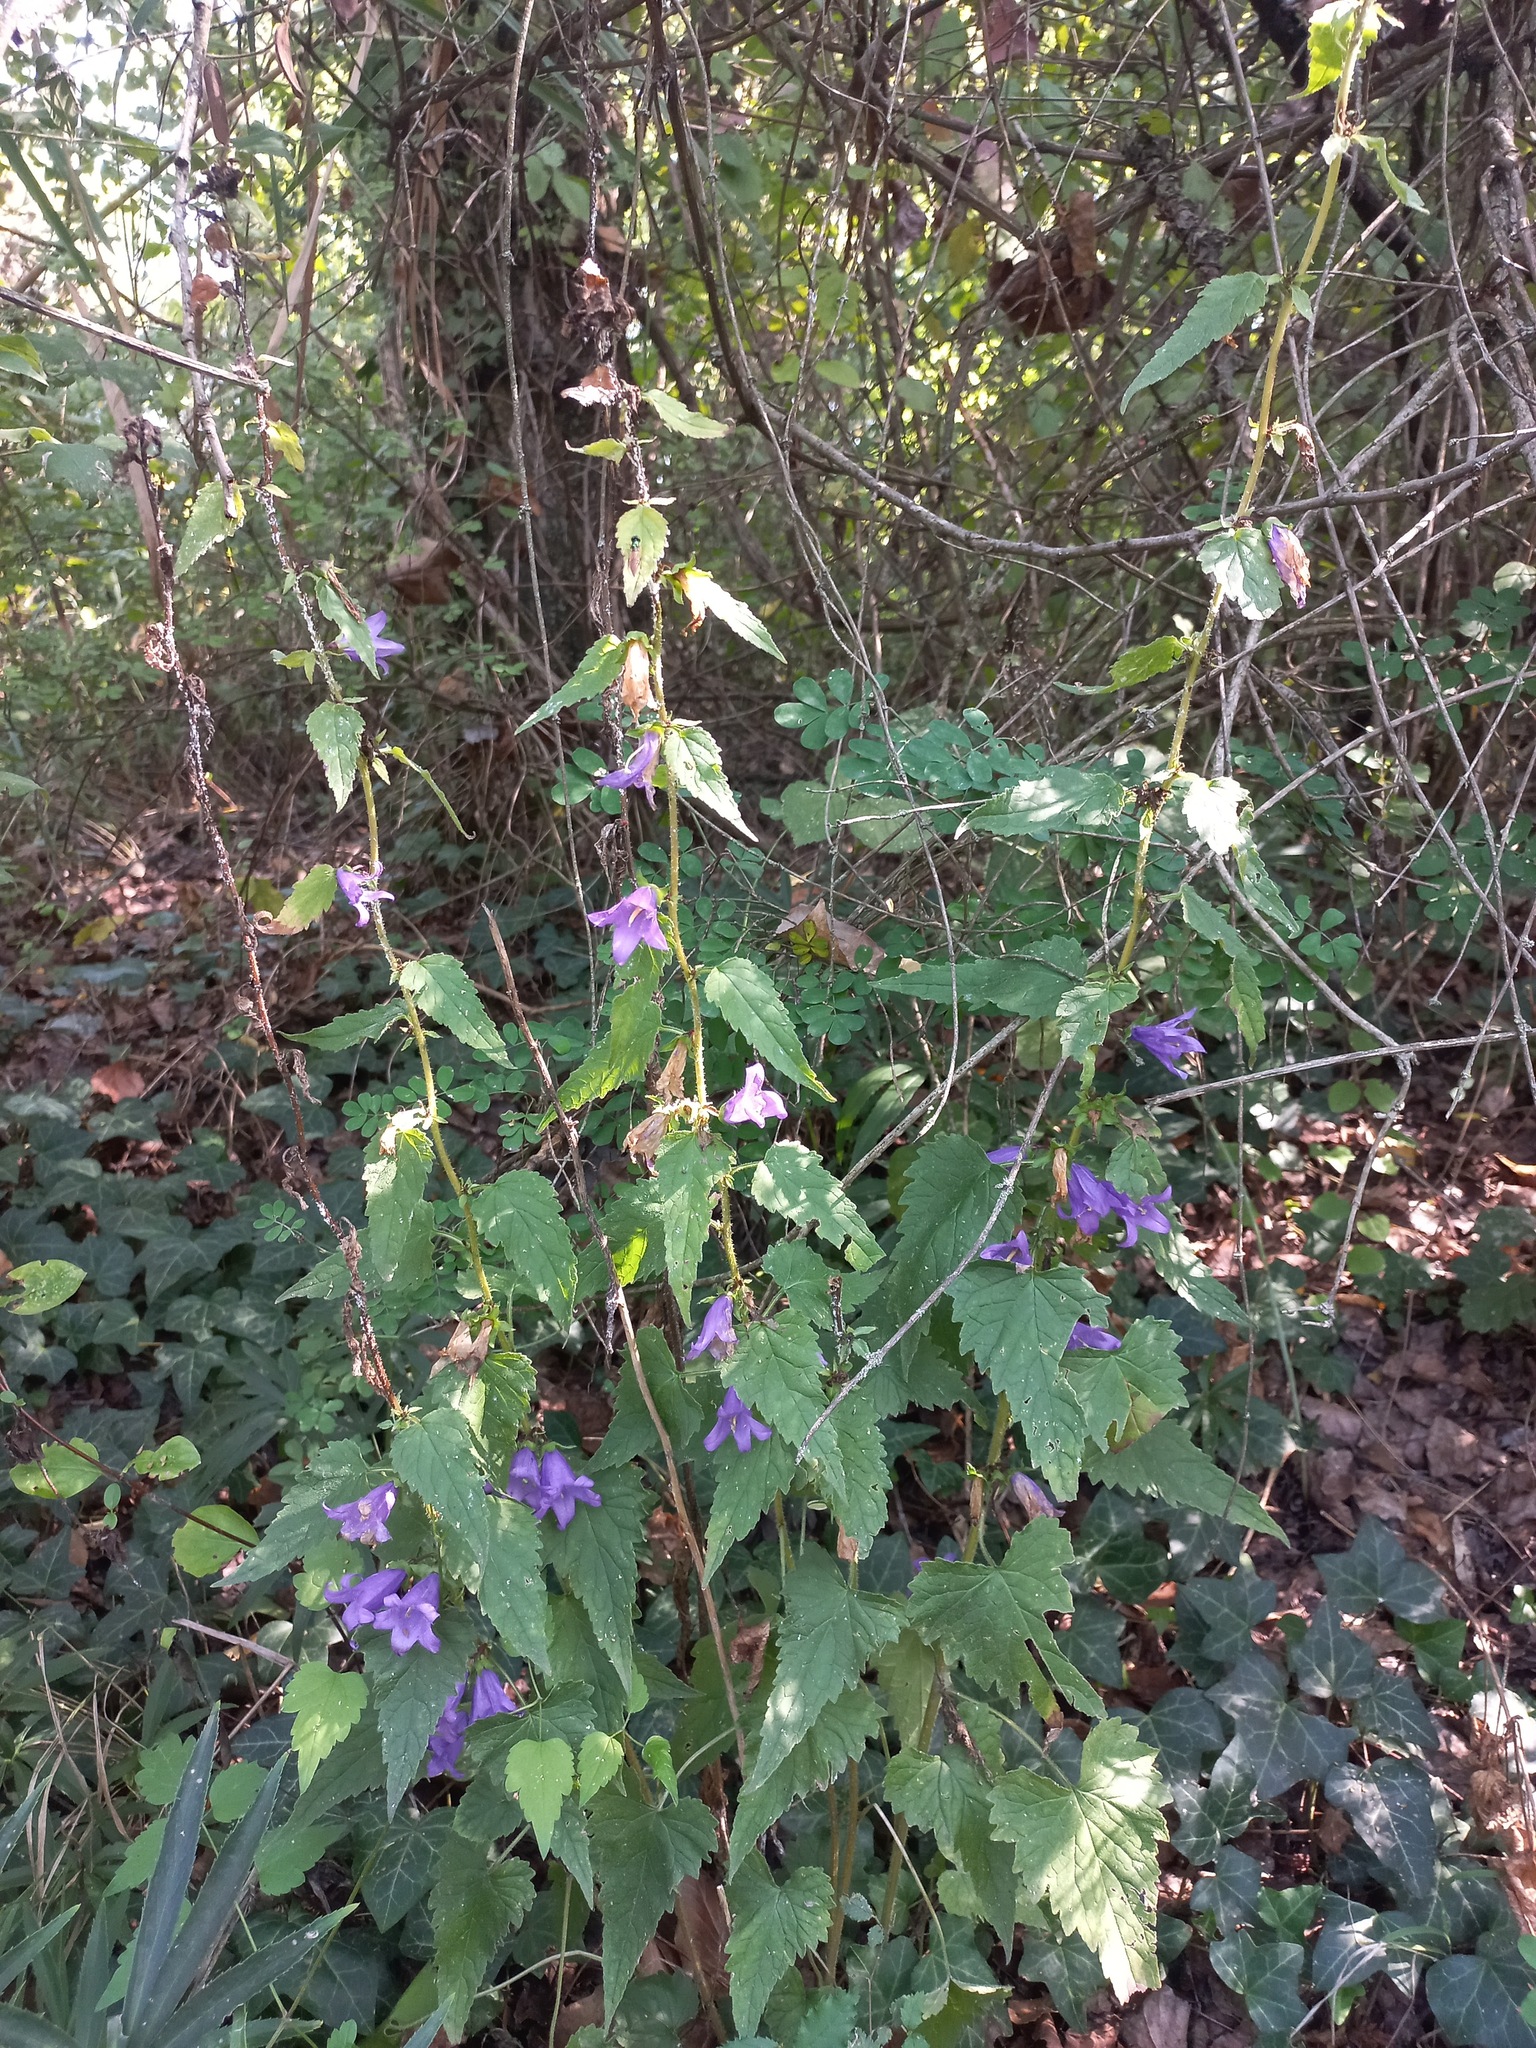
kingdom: Plantae
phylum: Tracheophyta
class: Magnoliopsida
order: Asterales
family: Campanulaceae
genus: Campanula
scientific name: Campanula trachelium
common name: Nettle-leaved bellflower
